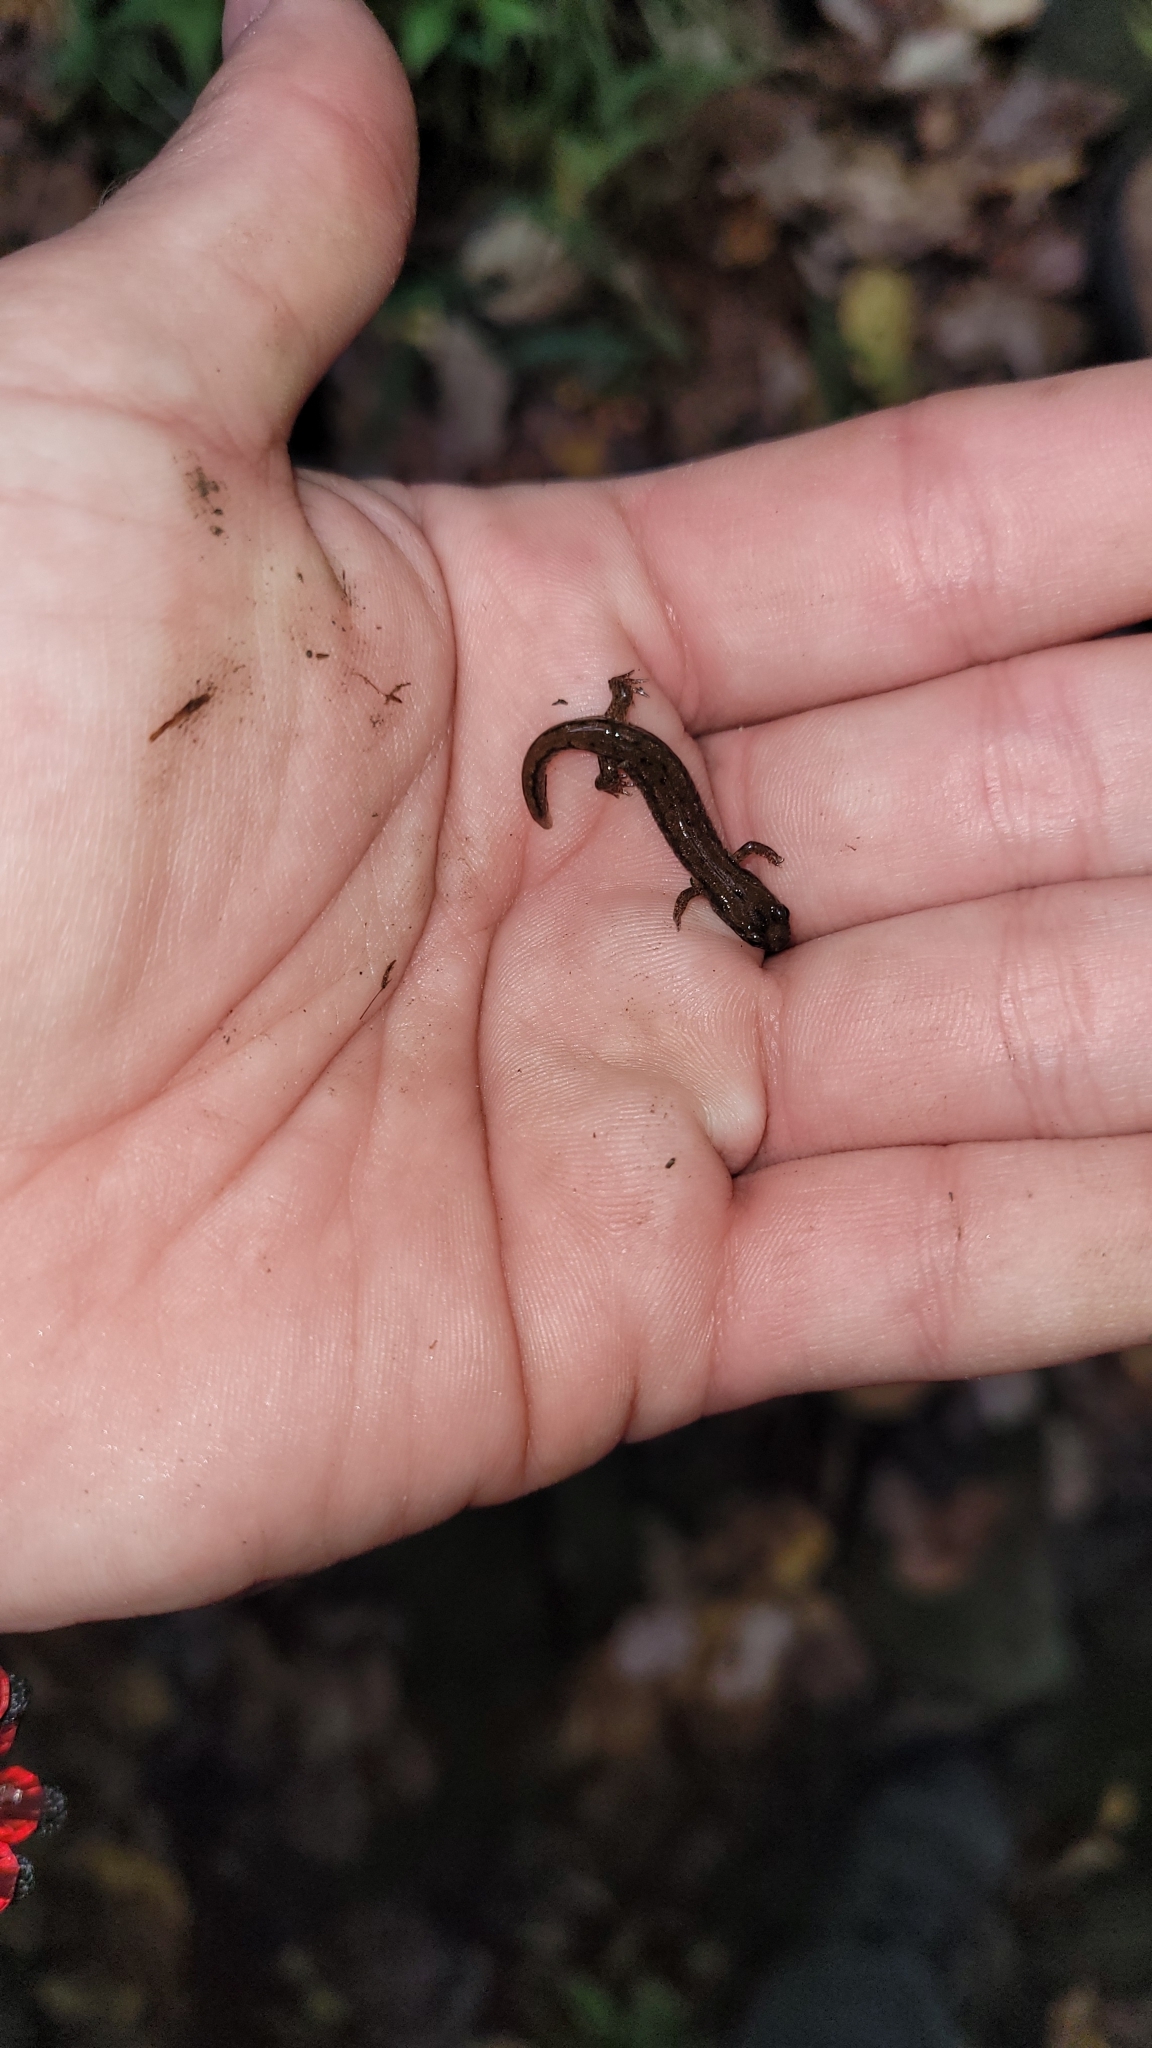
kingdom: Animalia
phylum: Chordata
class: Amphibia
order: Caudata
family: Plethodontidae
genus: Desmognathus
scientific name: Desmognathus fuscus
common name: Northern dusky salamander
